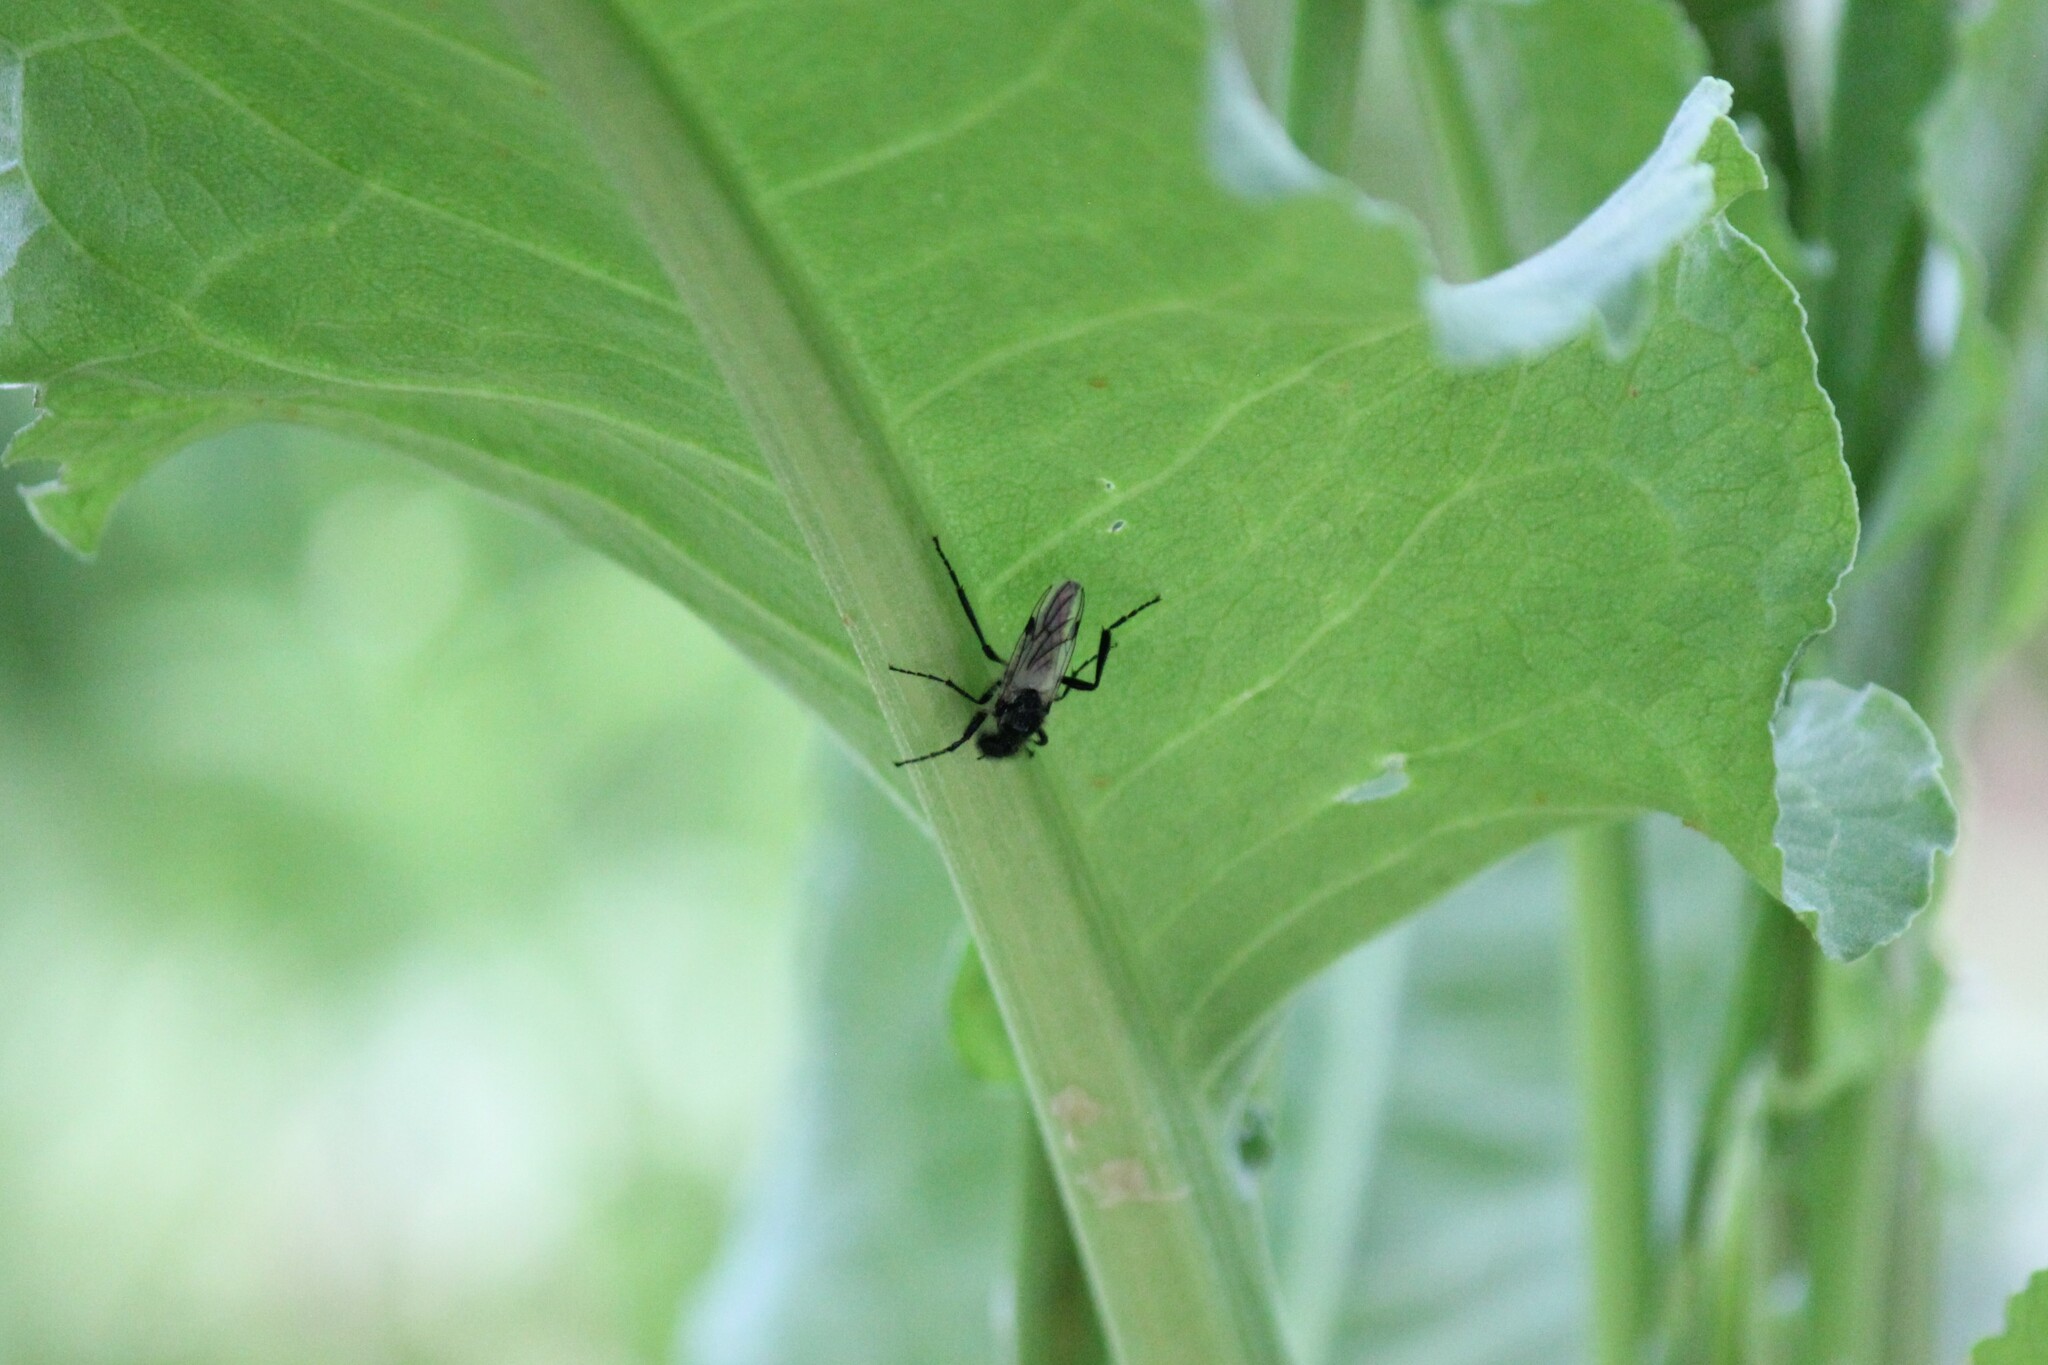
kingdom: Animalia
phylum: Arthropoda
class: Insecta
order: Diptera
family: Bibionidae
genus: Bibio
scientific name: Bibio albipennis
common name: White-winged march fly
